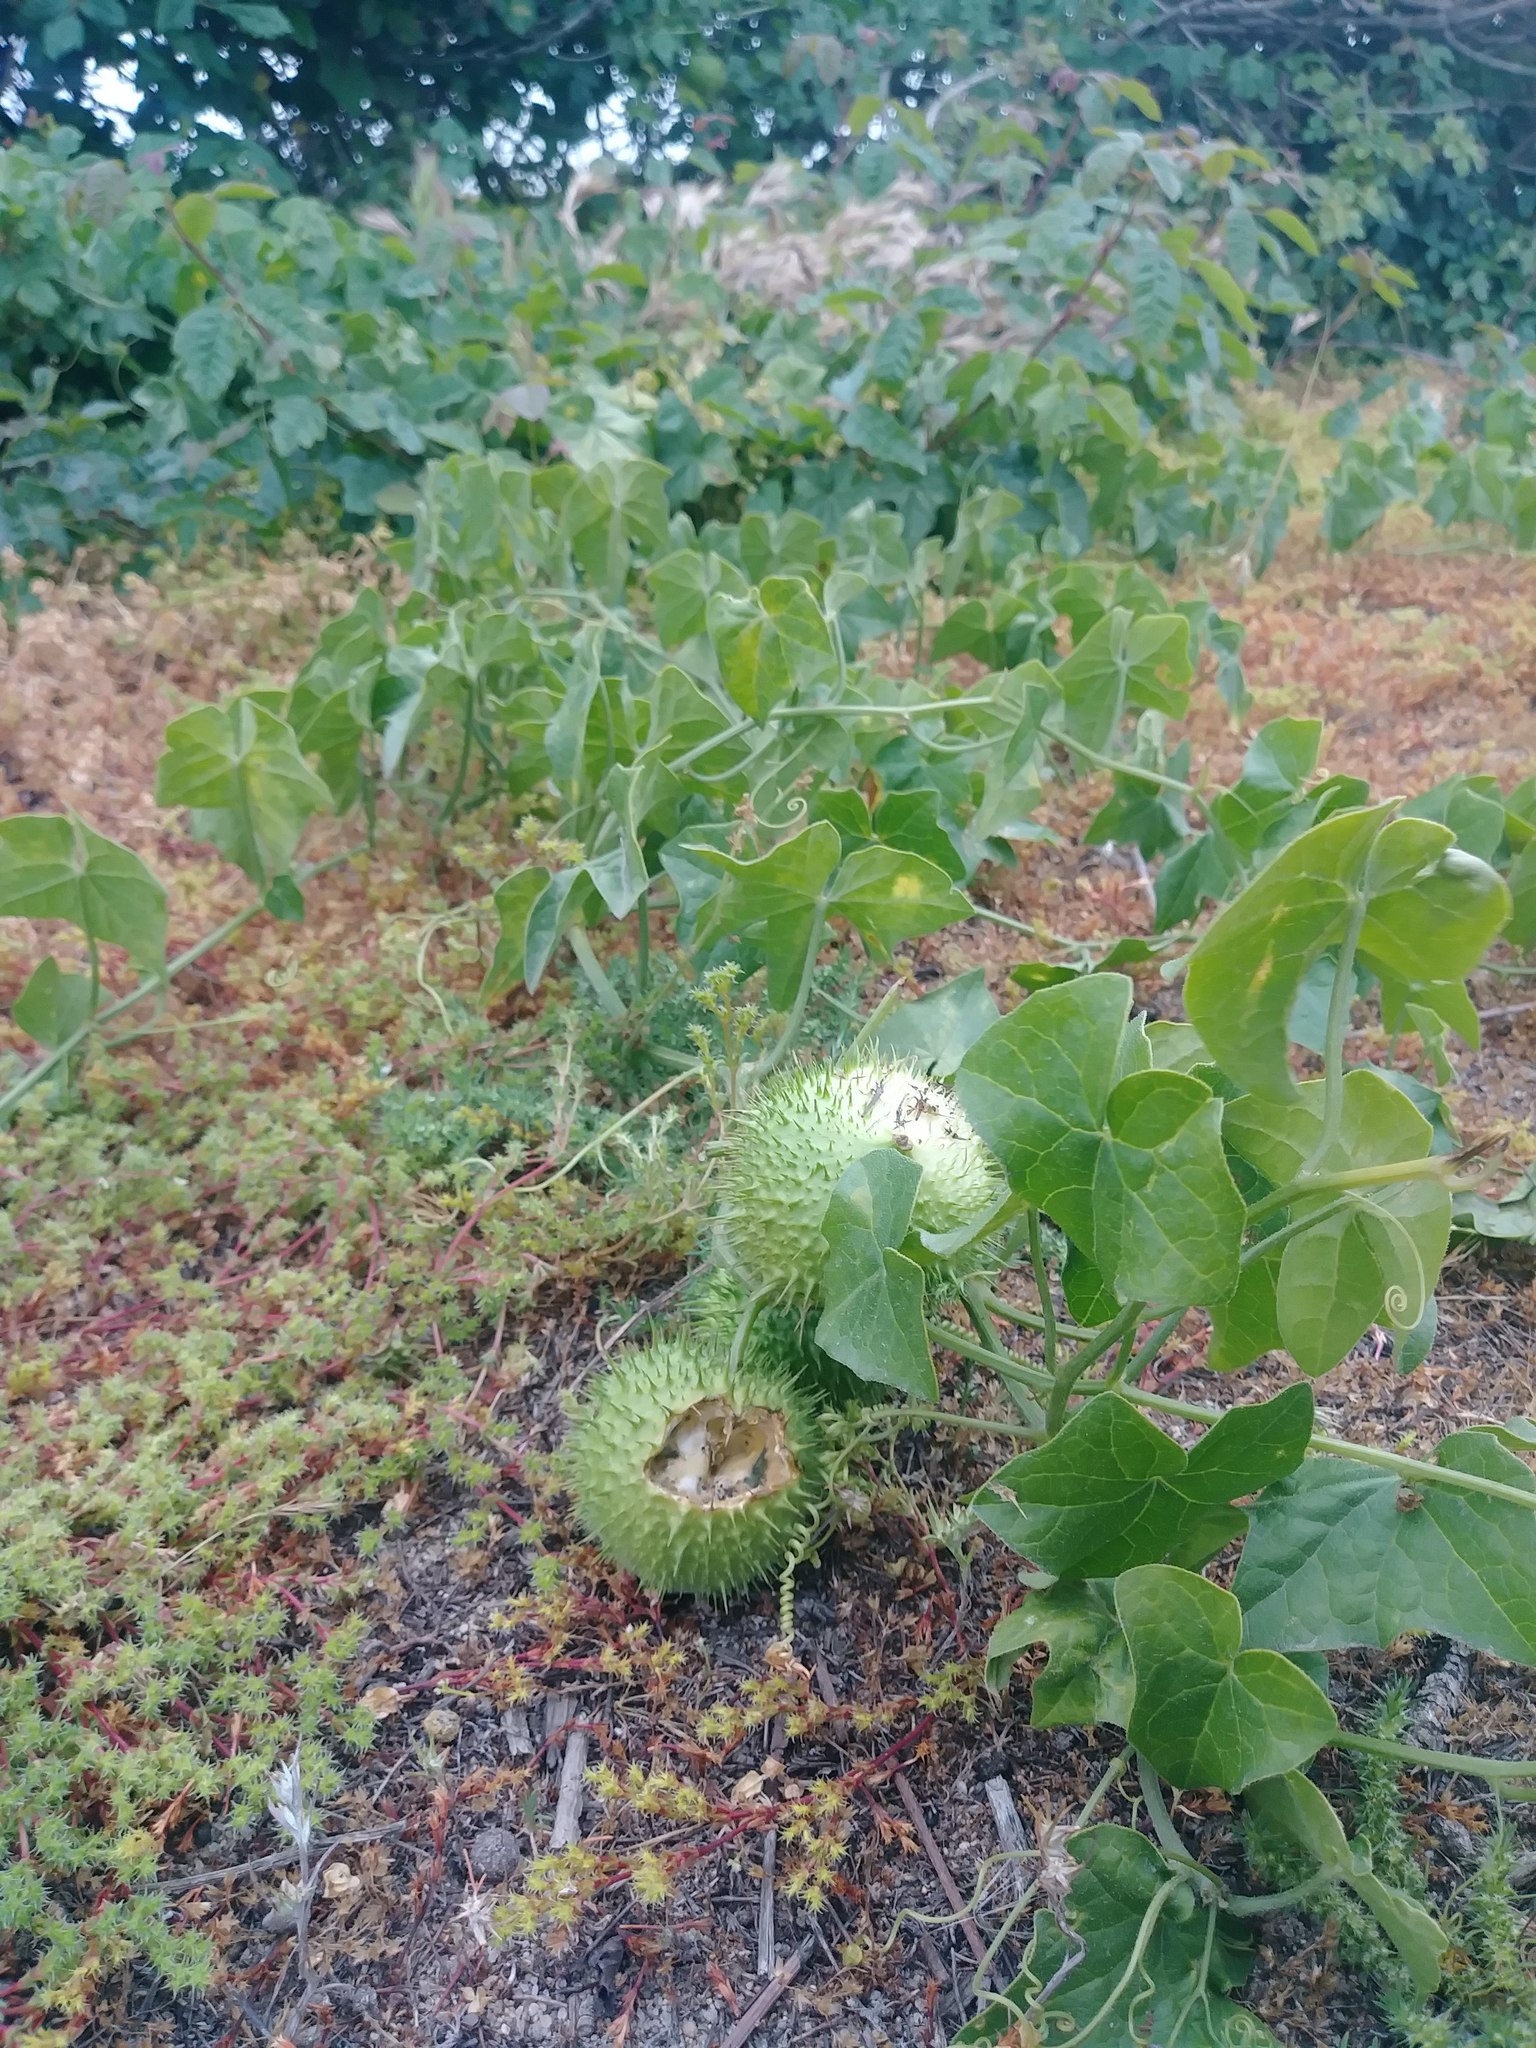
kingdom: Plantae
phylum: Tracheophyta
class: Magnoliopsida
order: Cucurbitales
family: Cucurbitaceae
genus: Marah
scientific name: Marah fabacea
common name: California manroot
